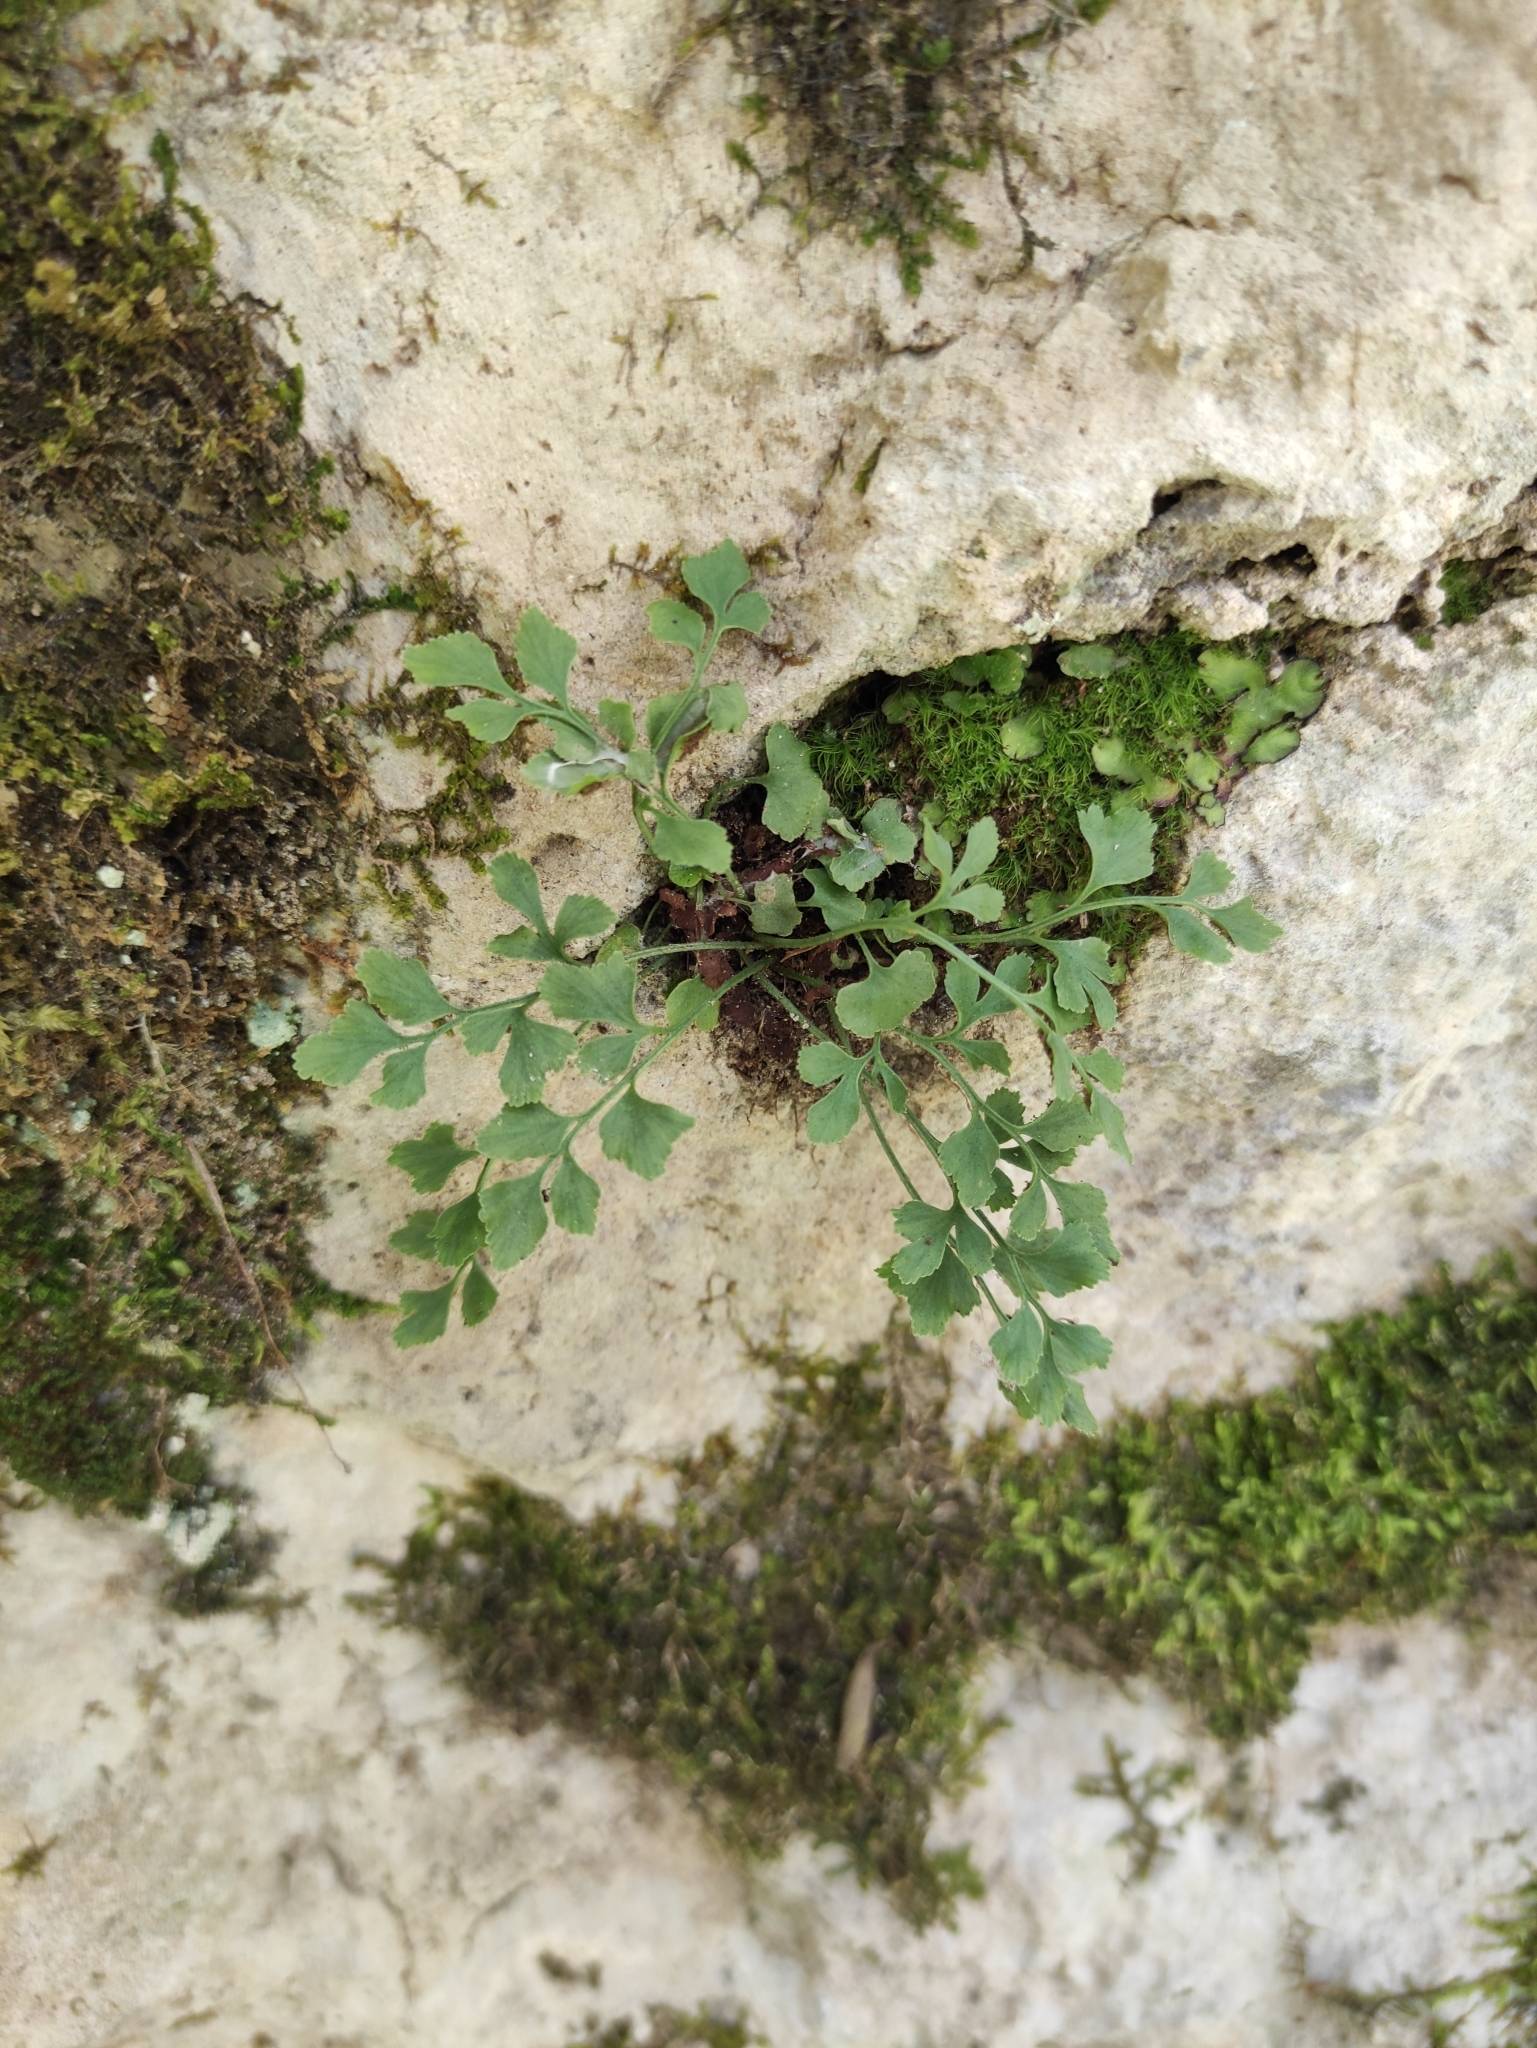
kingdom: Plantae
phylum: Tracheophyta
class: Polypodiopsida
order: Polypodiales
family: Aspleniaceae
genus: Asplenium
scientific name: Asplenium ruta-muraria
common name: Wall-rue
